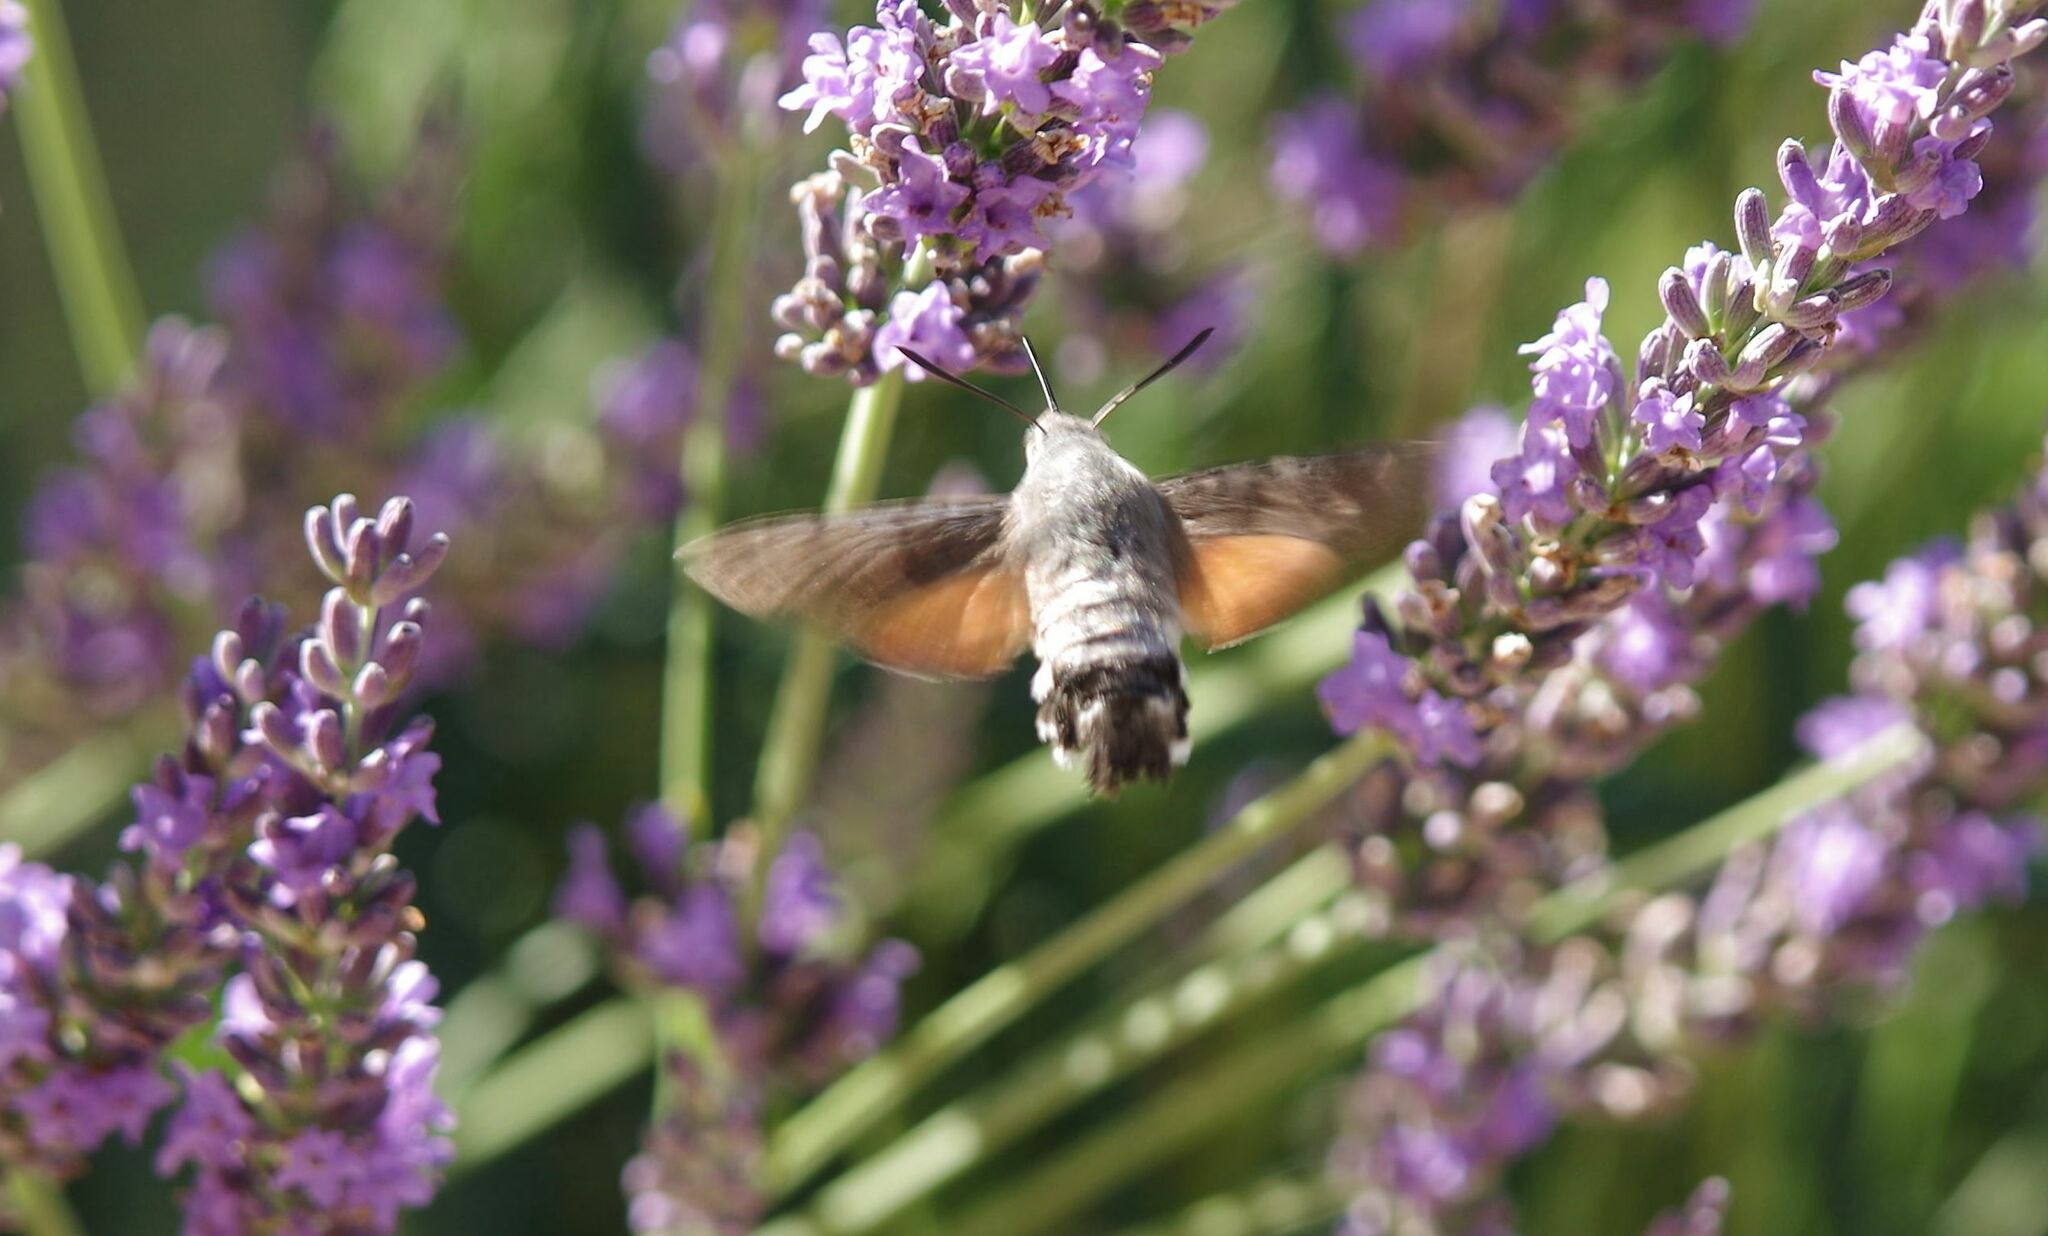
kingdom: Animalia
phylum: Arthropoda
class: Insecta
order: Lepidoptera
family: Sphingidae
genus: Macroglossum
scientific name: Macroglossum stellatarum
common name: Humming-bird hawk-moth
